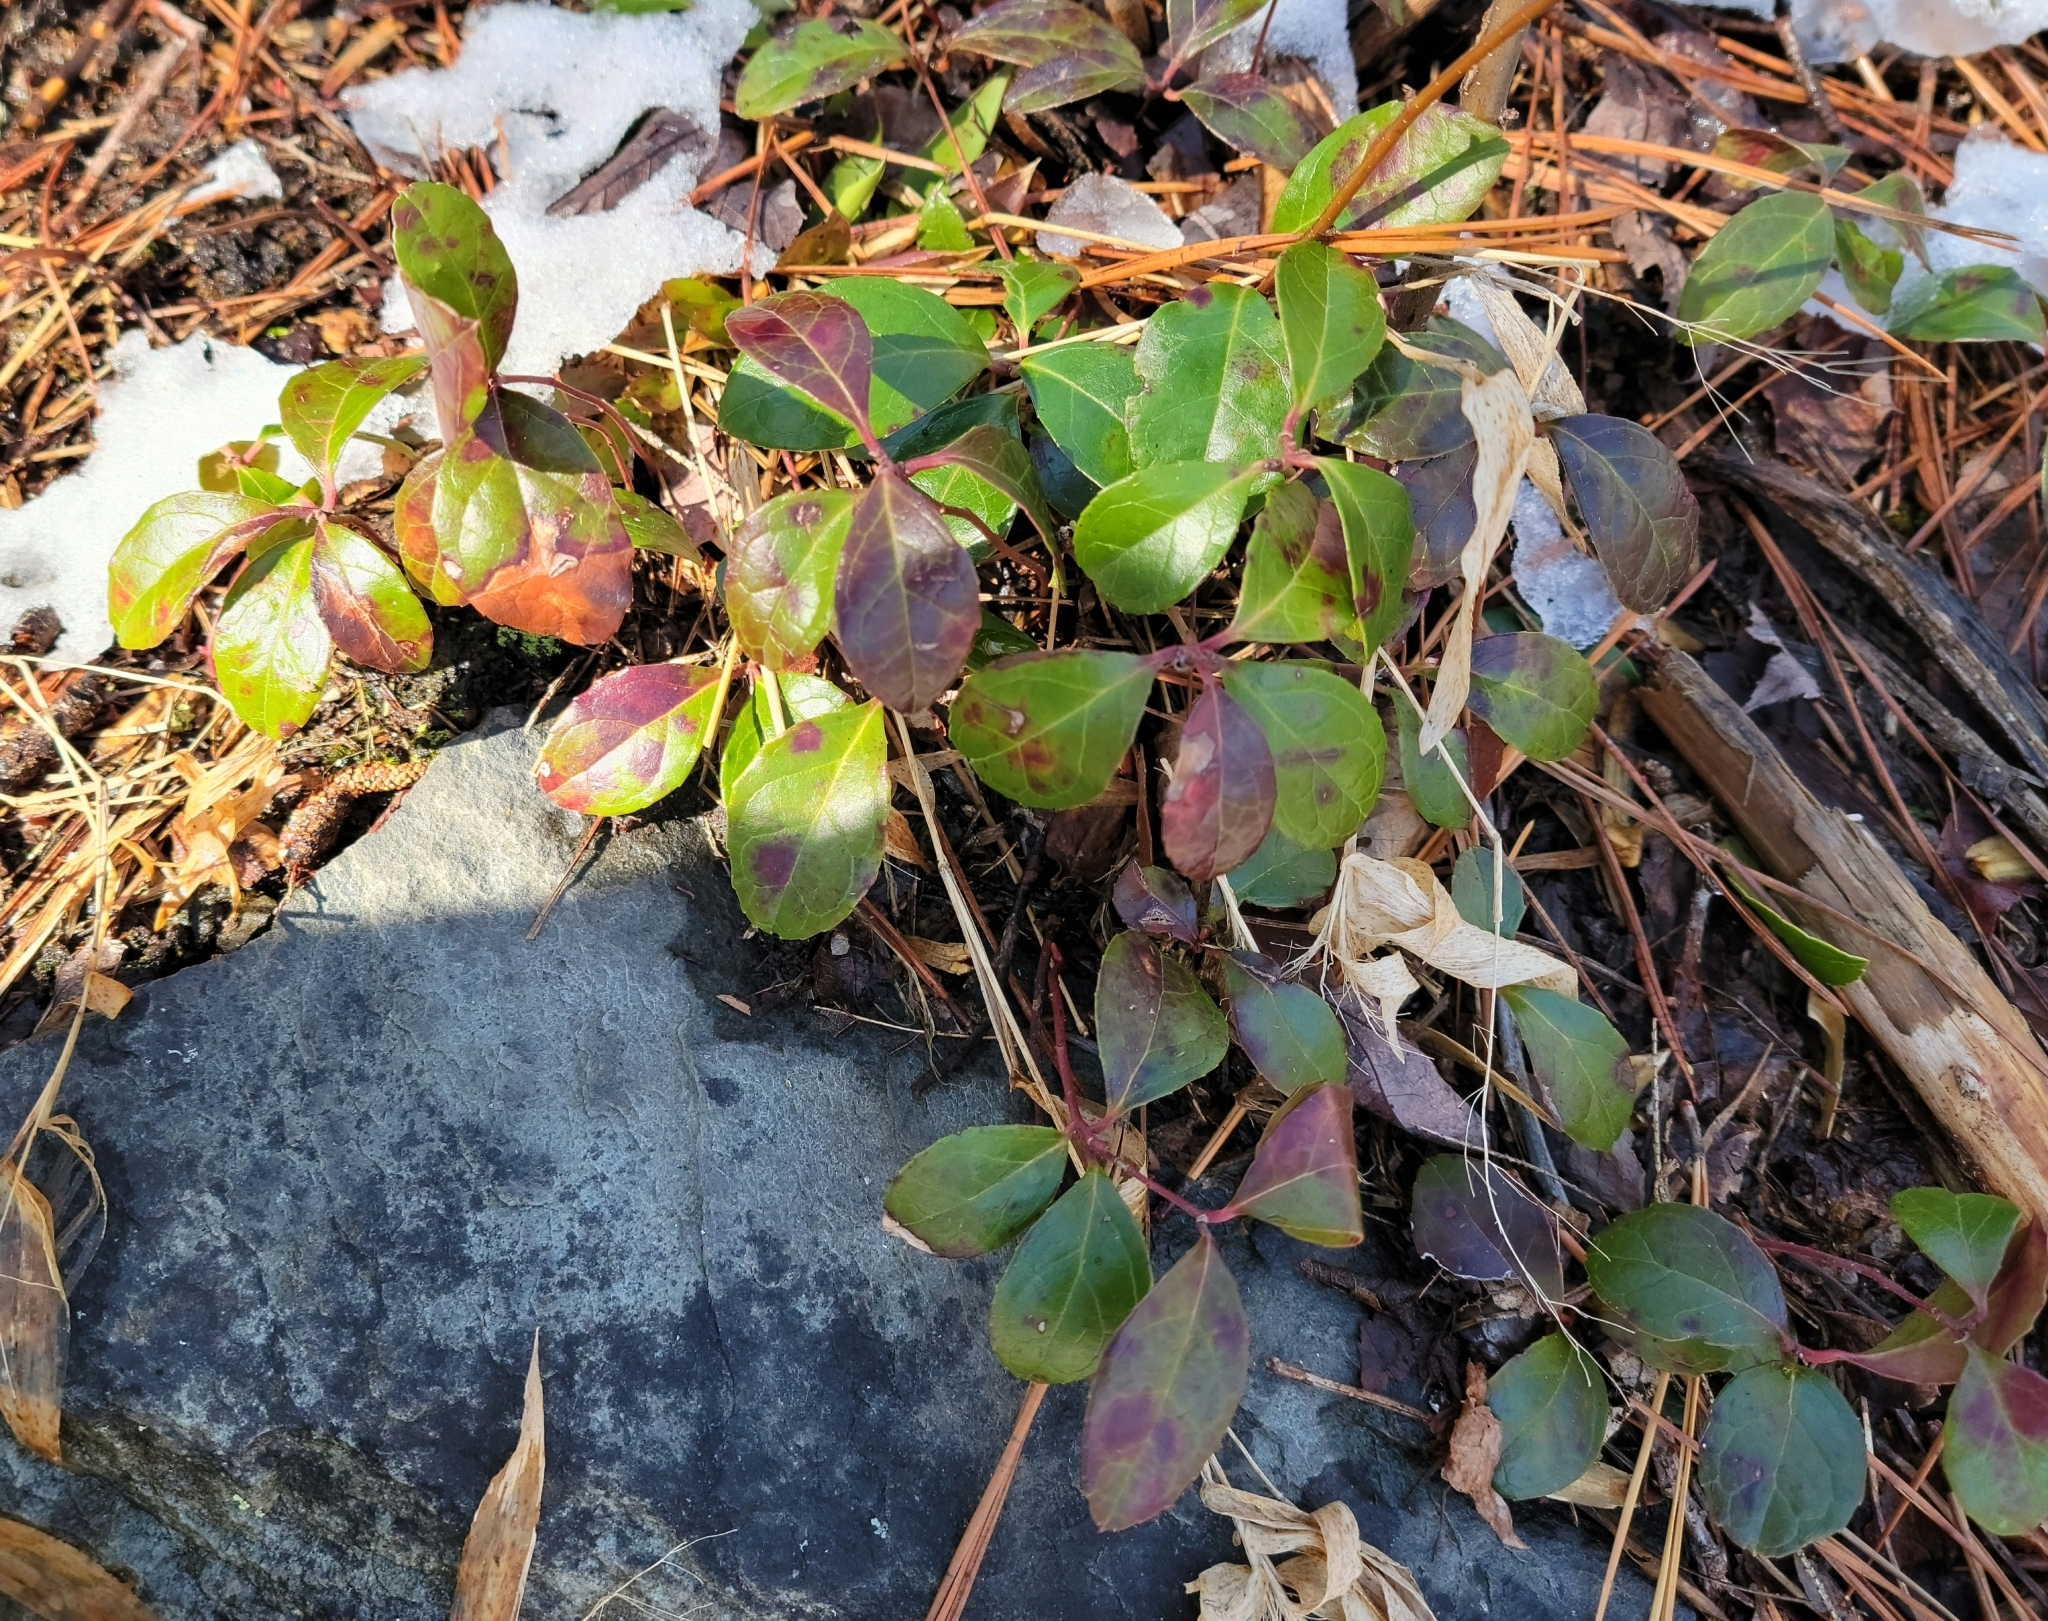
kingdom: Plantae
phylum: Tracheophyta
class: Magnoliopsida
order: Ericales
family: Ericaceae
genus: Gaultheria
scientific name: Gaultheria procumbens
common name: Checkerberry
